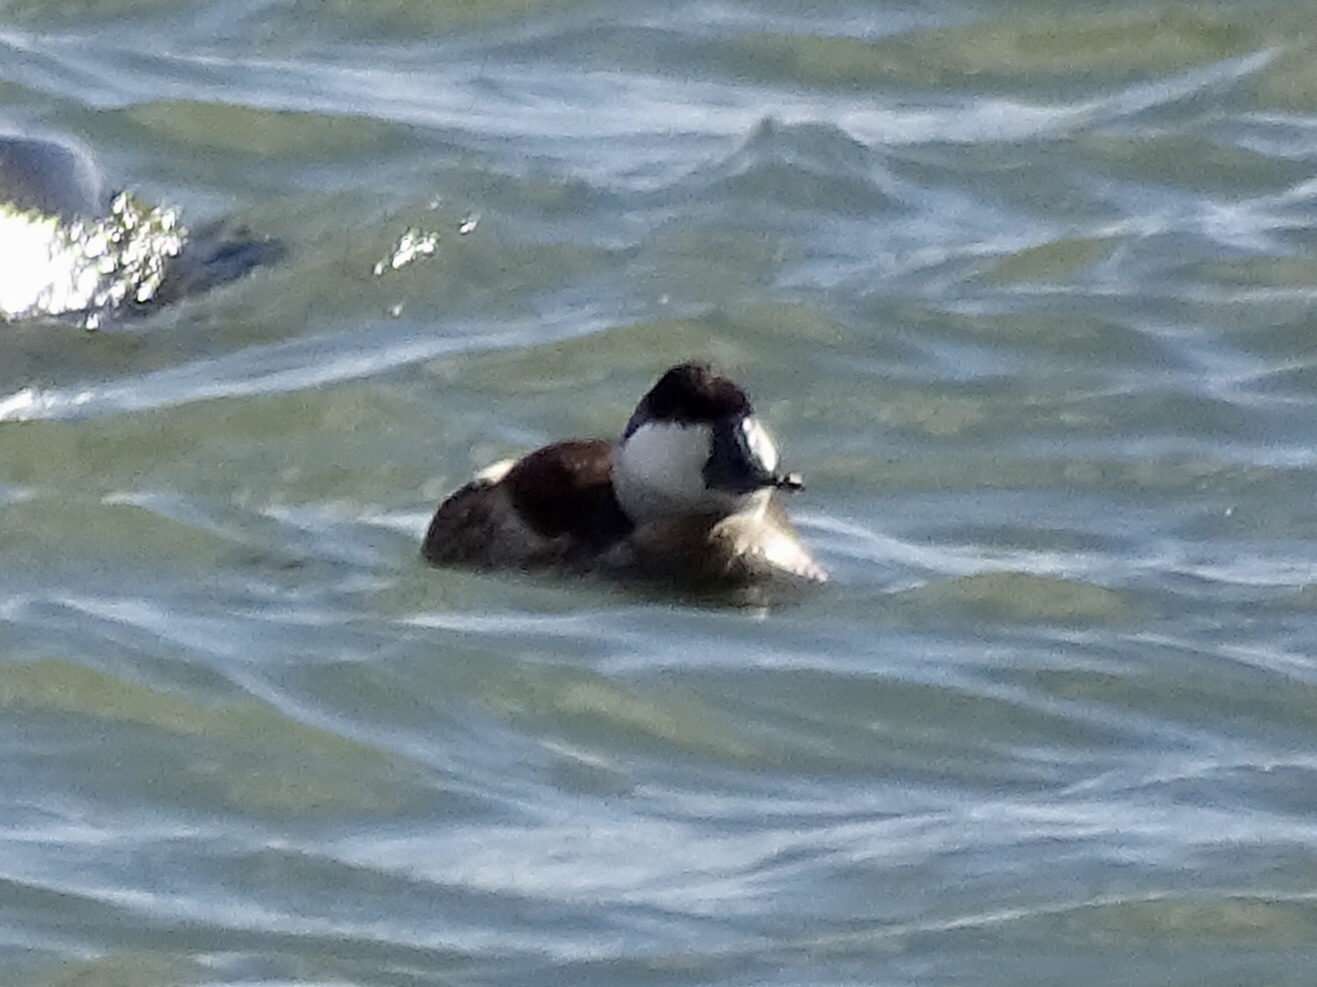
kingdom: Animalia
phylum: Chordata
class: Aves
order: Anseriformes
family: Anatidae
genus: Oxyura
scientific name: Oxyura jamaicensis
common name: Ruddy duck
